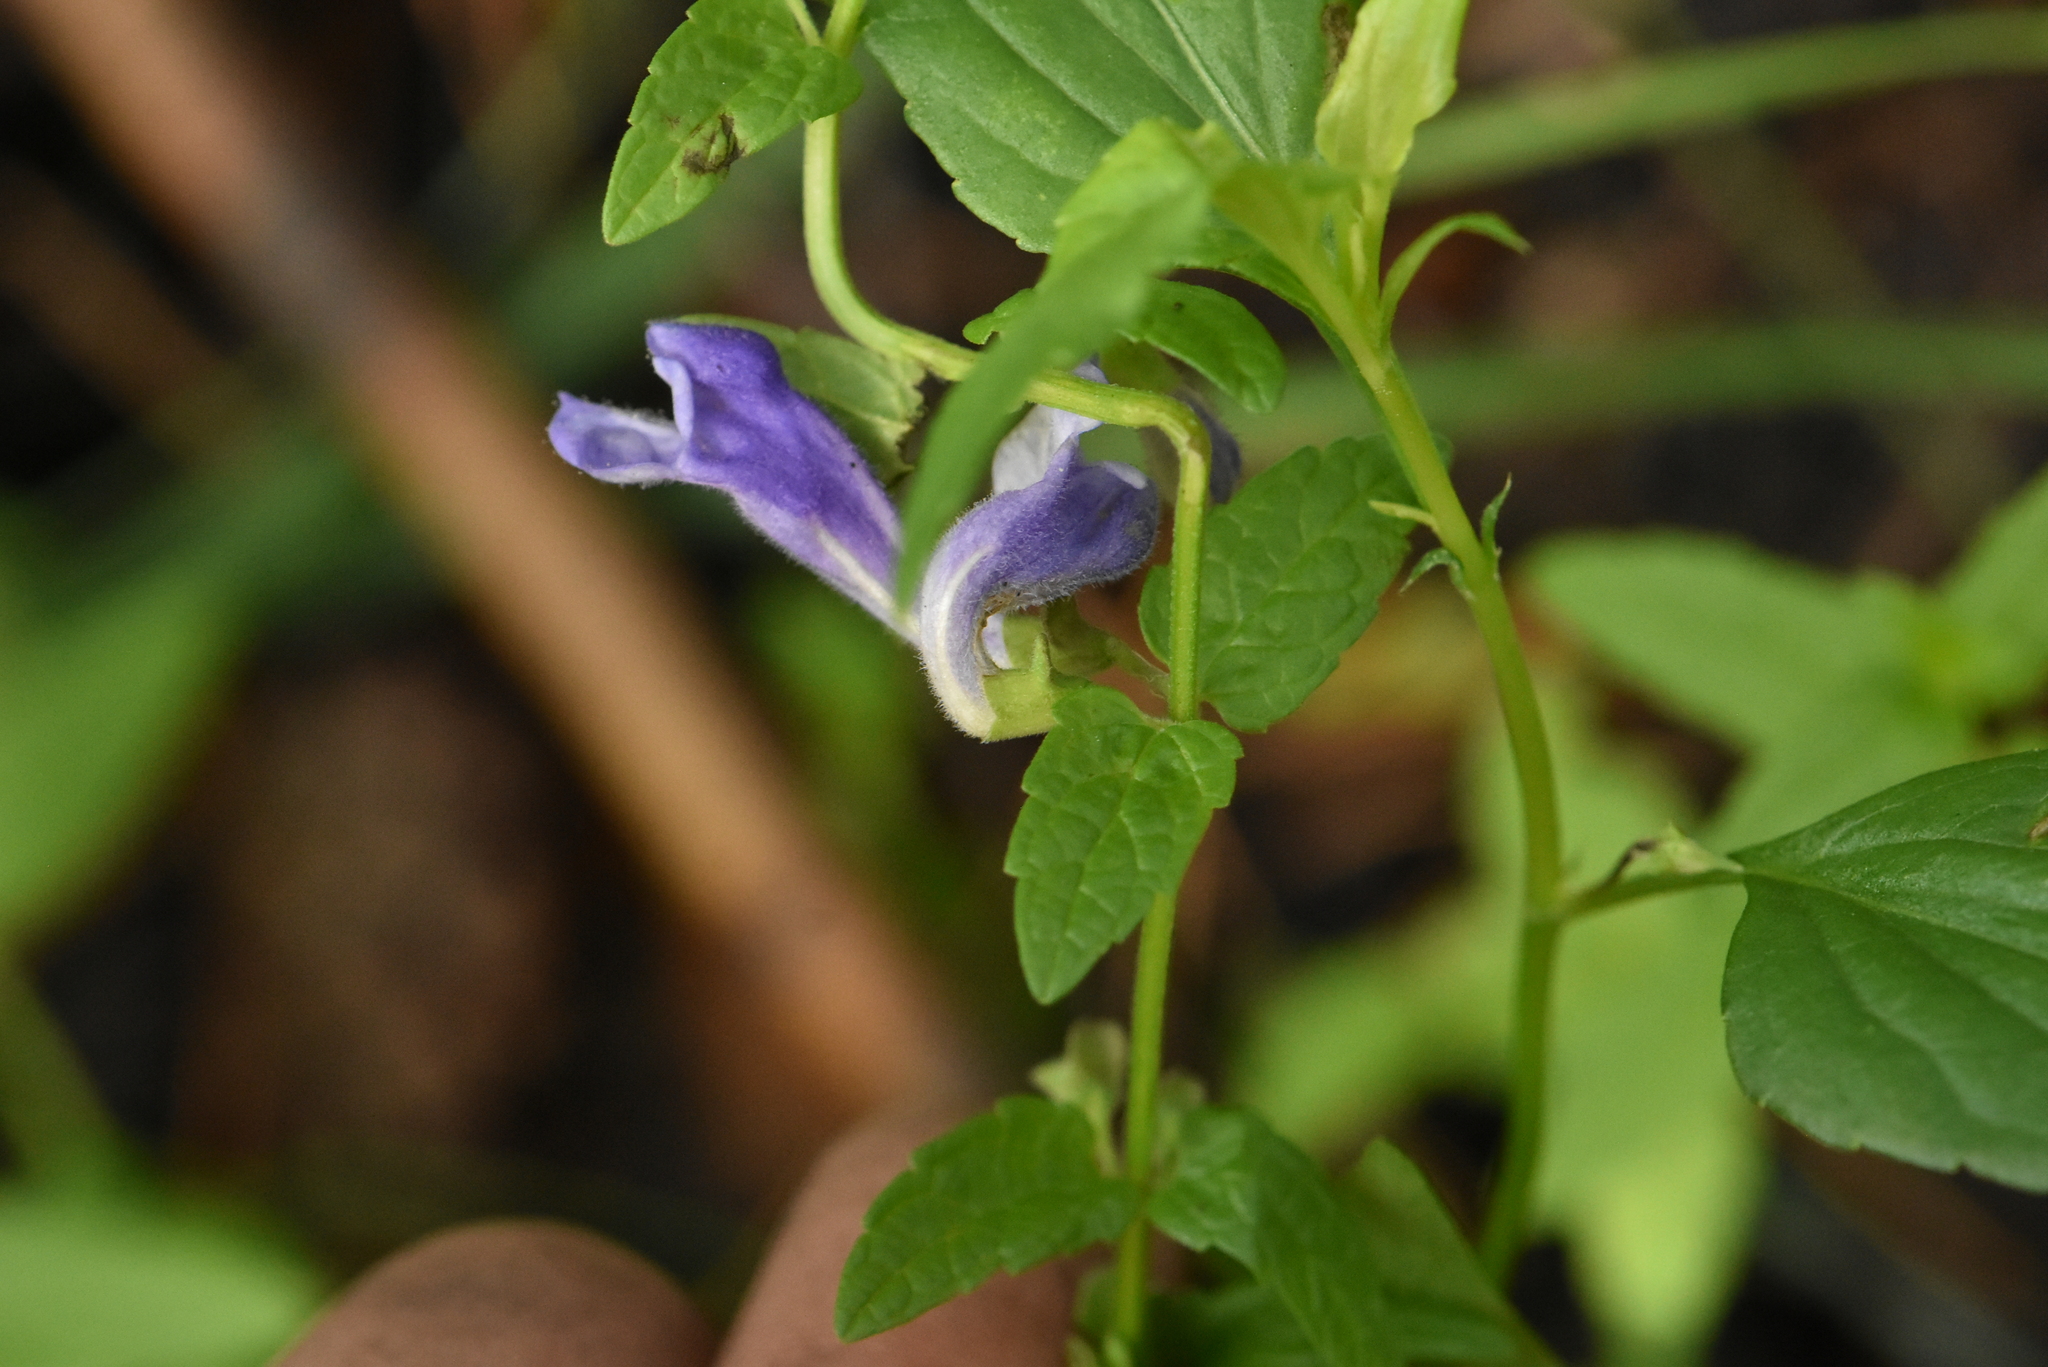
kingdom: Plantae
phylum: Tracheophyta
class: Magnoliopsida
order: Lamiales
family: Lamiaceae
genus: Scutellaria
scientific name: Scutellaria galericulata
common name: Skullcap
